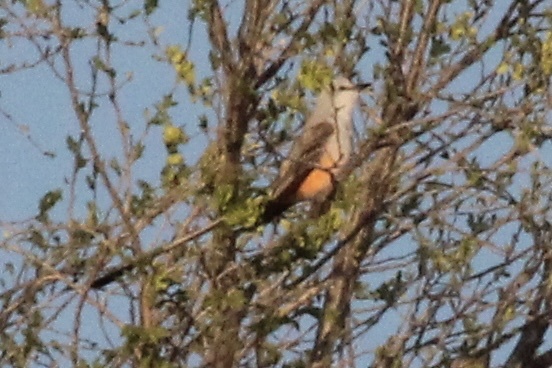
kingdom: Animalia
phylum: Chordata
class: Aves
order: Passeriformes
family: Tyrannidae
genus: Tyrannus
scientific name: Tyrannus forficatus
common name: Scissor-tailed flycatcher
